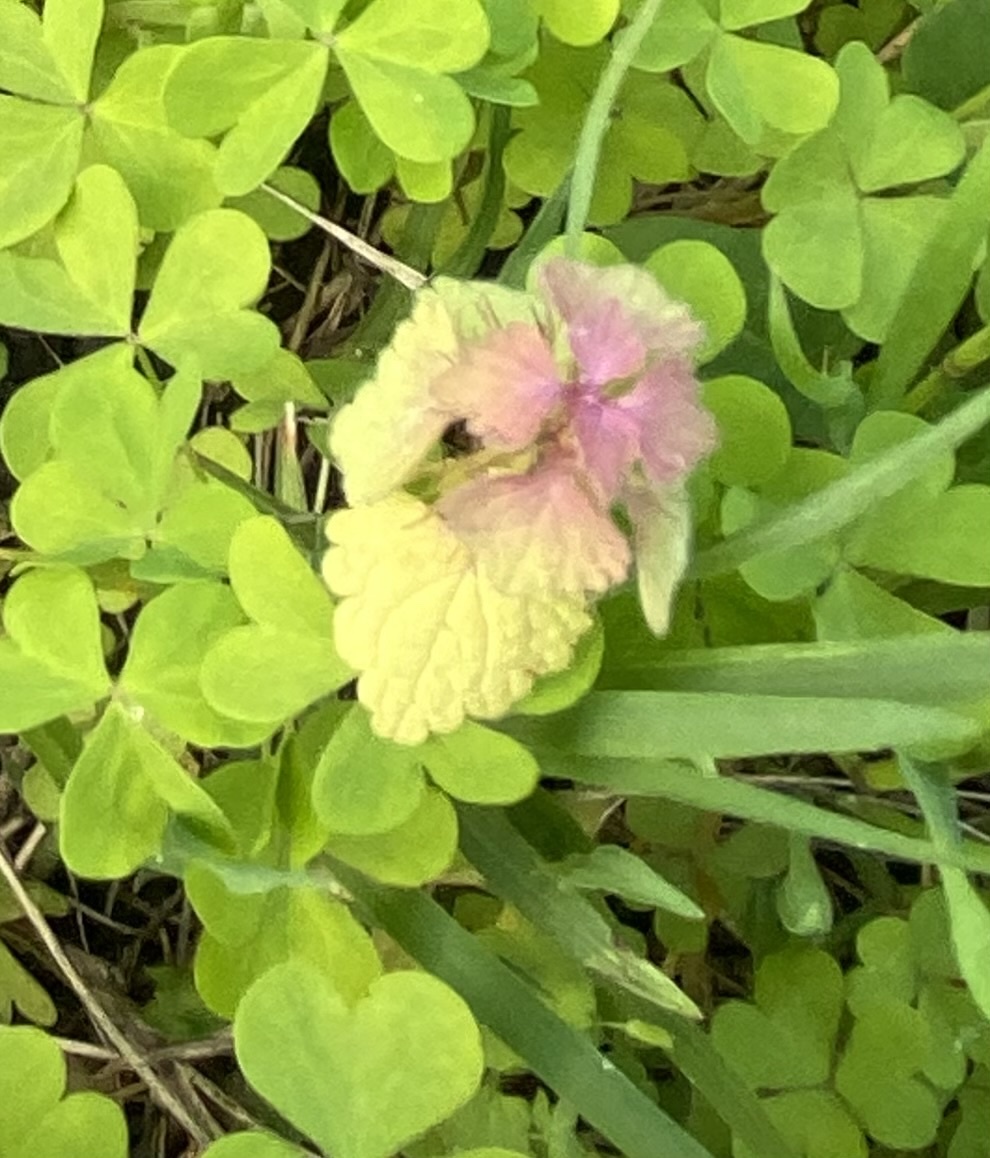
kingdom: Plantae
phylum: Tracheophyta
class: Magnoliopsida
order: Lamiales
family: Lamiaceae
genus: Lamium
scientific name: Lamium purpureum
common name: Red dead-nettle
